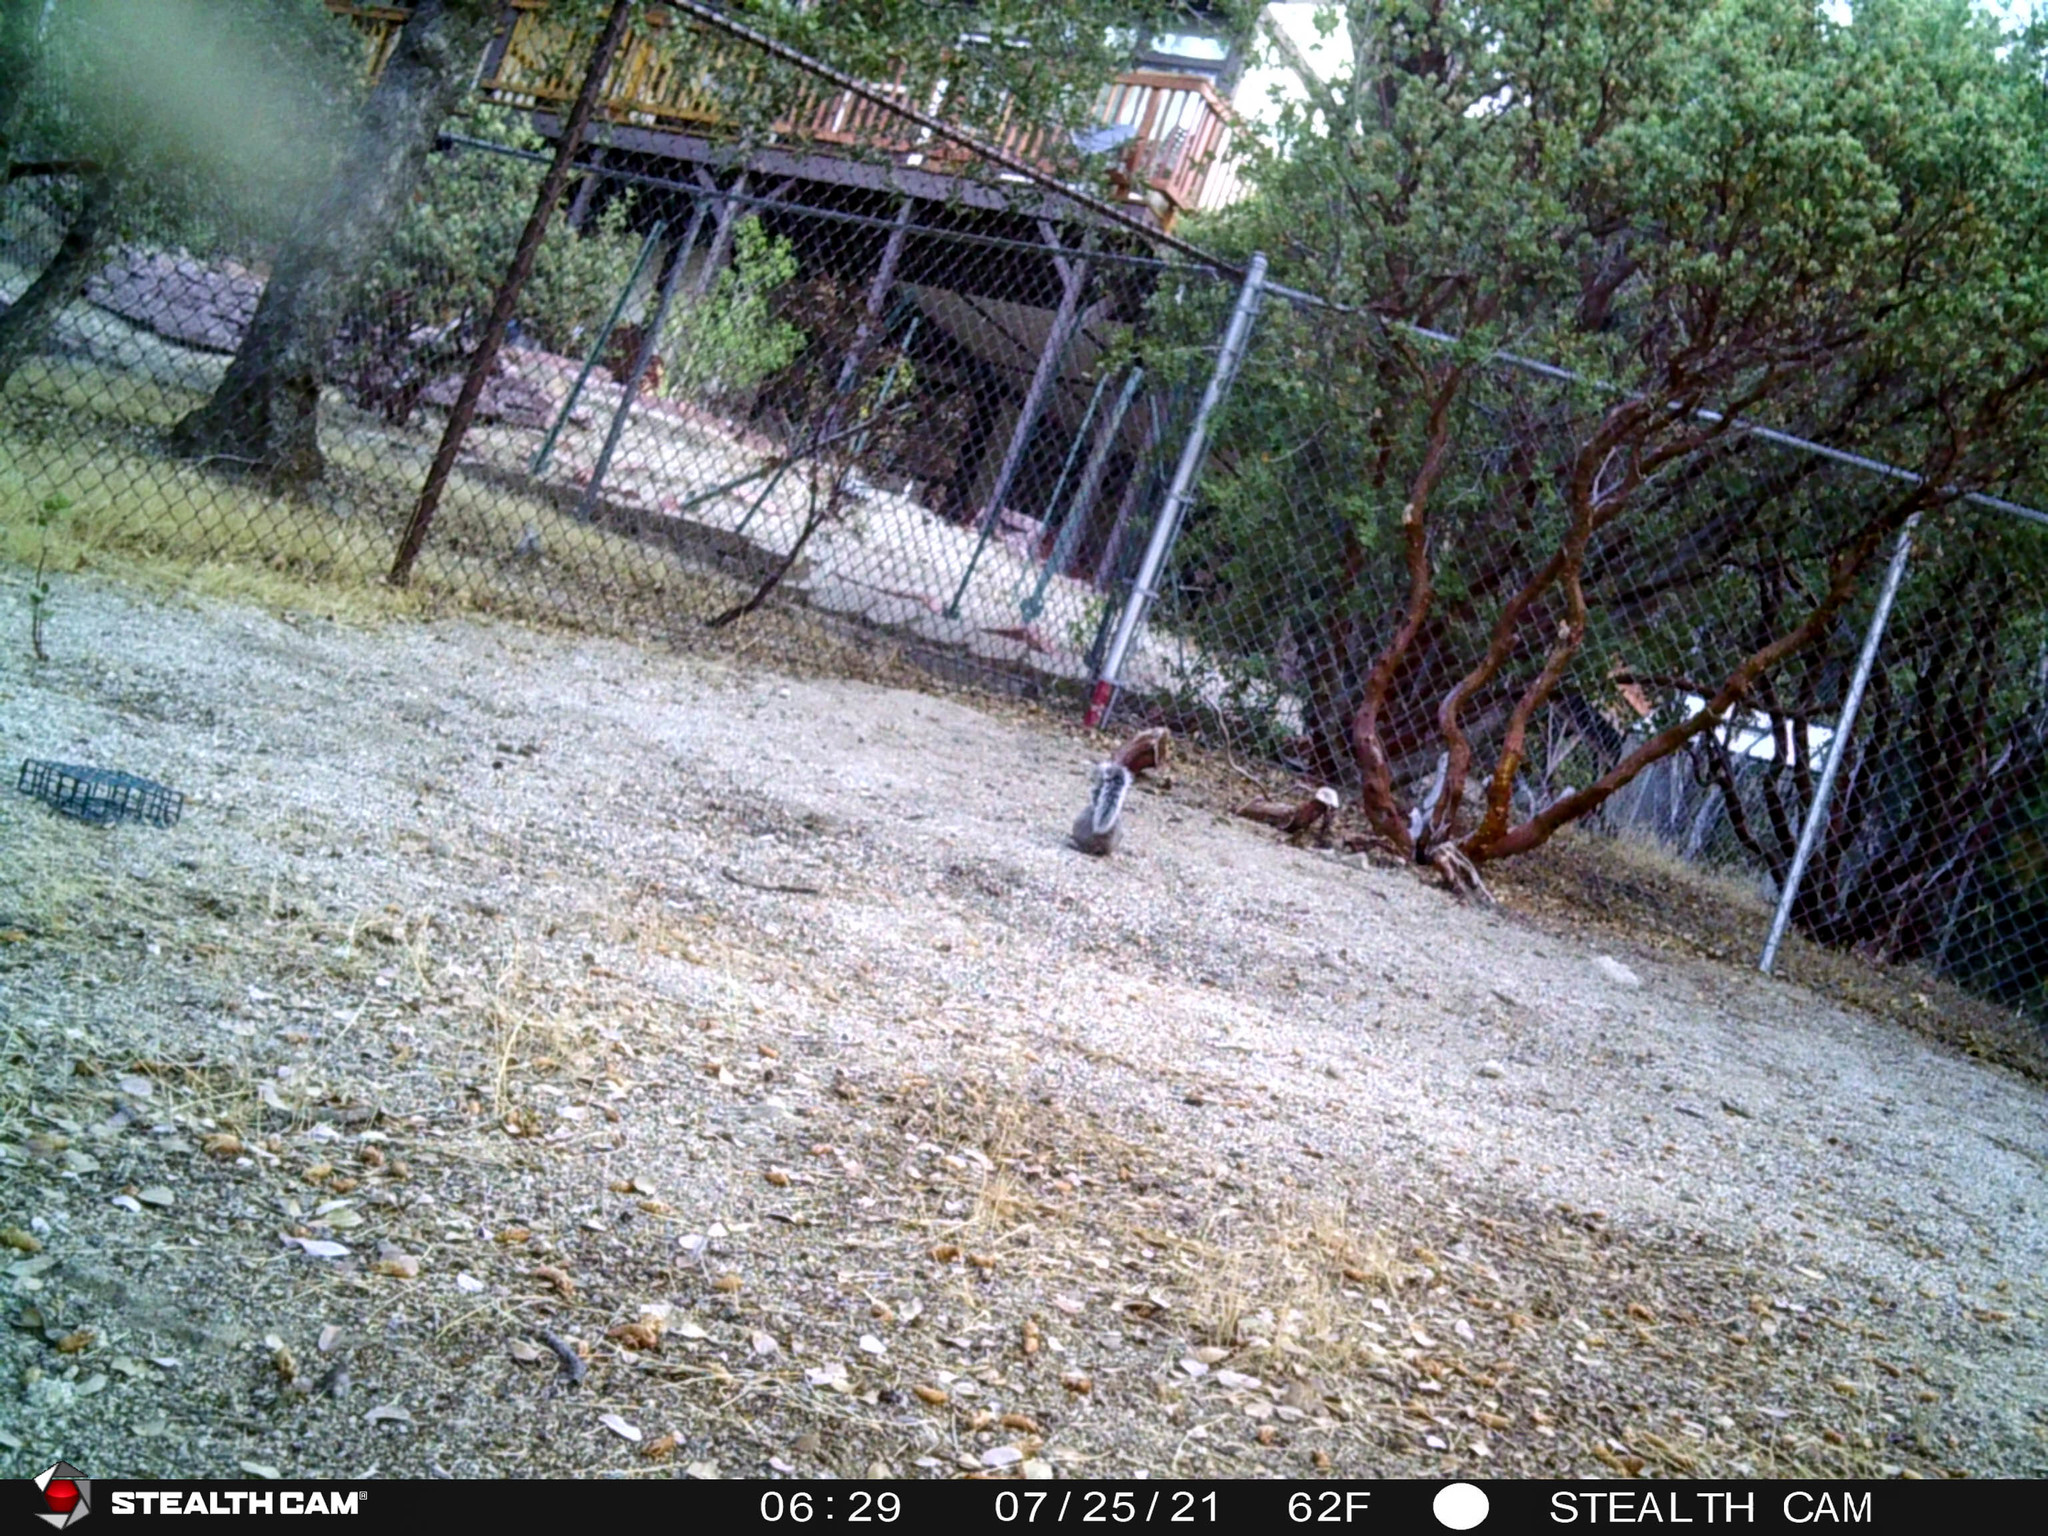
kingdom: Animalia
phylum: Chordata
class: Mammalia
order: Rodentia
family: Sciuridae
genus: Sciurus
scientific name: Sciurus griseus
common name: Western gray squirrel
